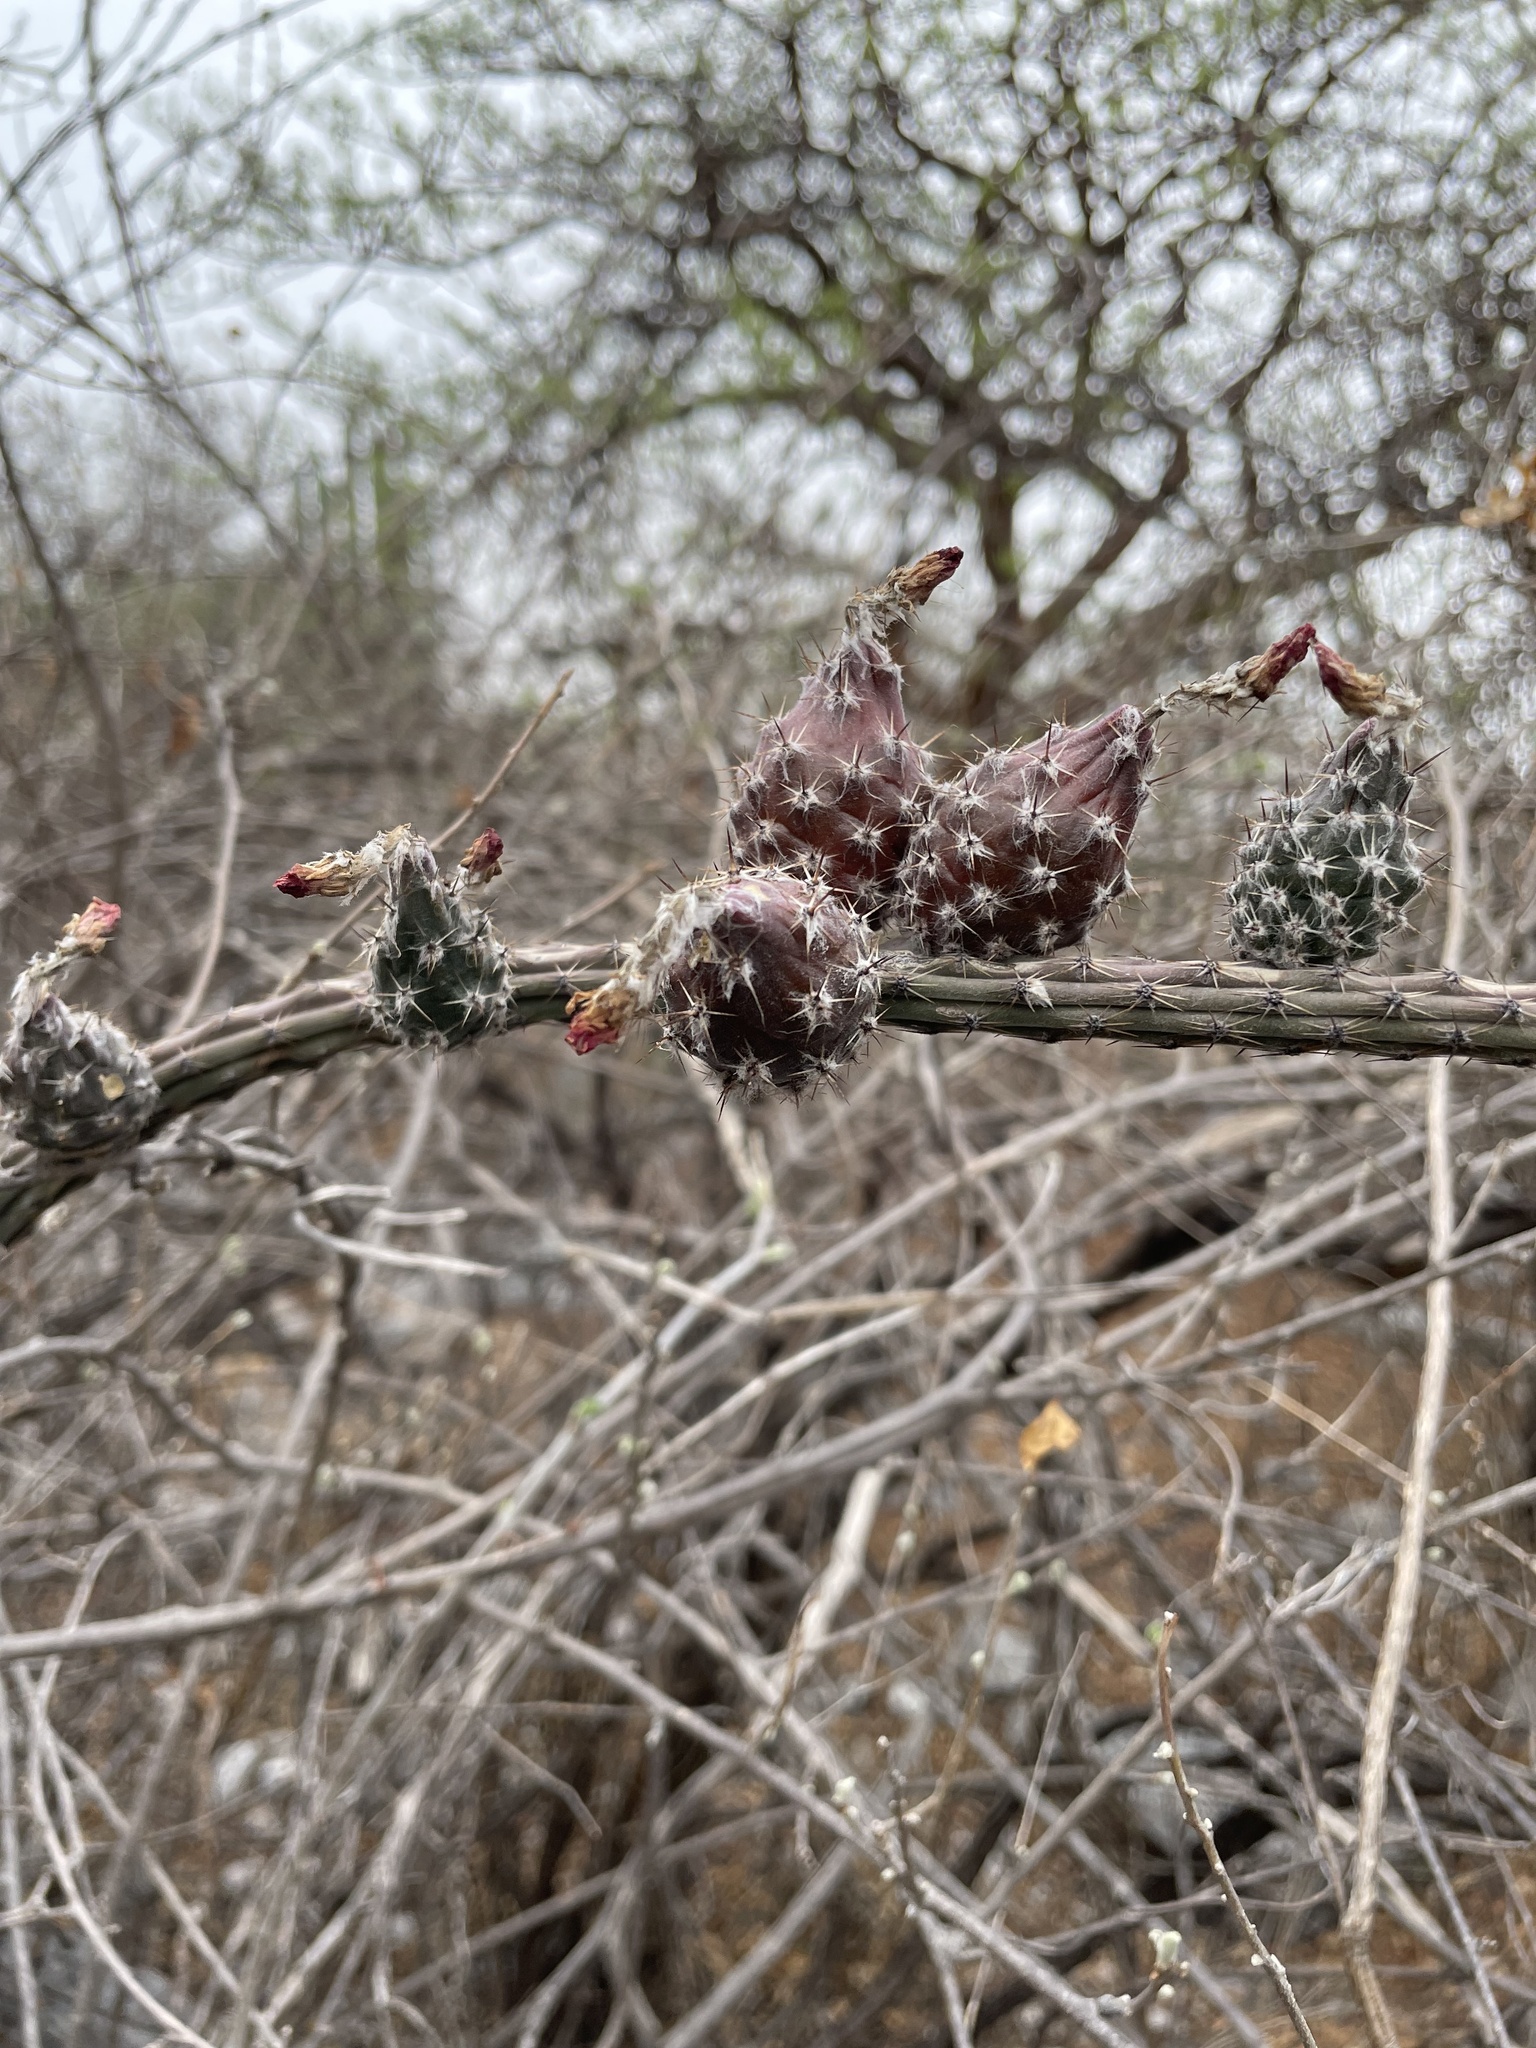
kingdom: Plantae
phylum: Tracheophyta
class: Magnoliopsida
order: Caryophyllales
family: Cactaceae
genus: Peniocereus
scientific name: Peniocereus viperinus
